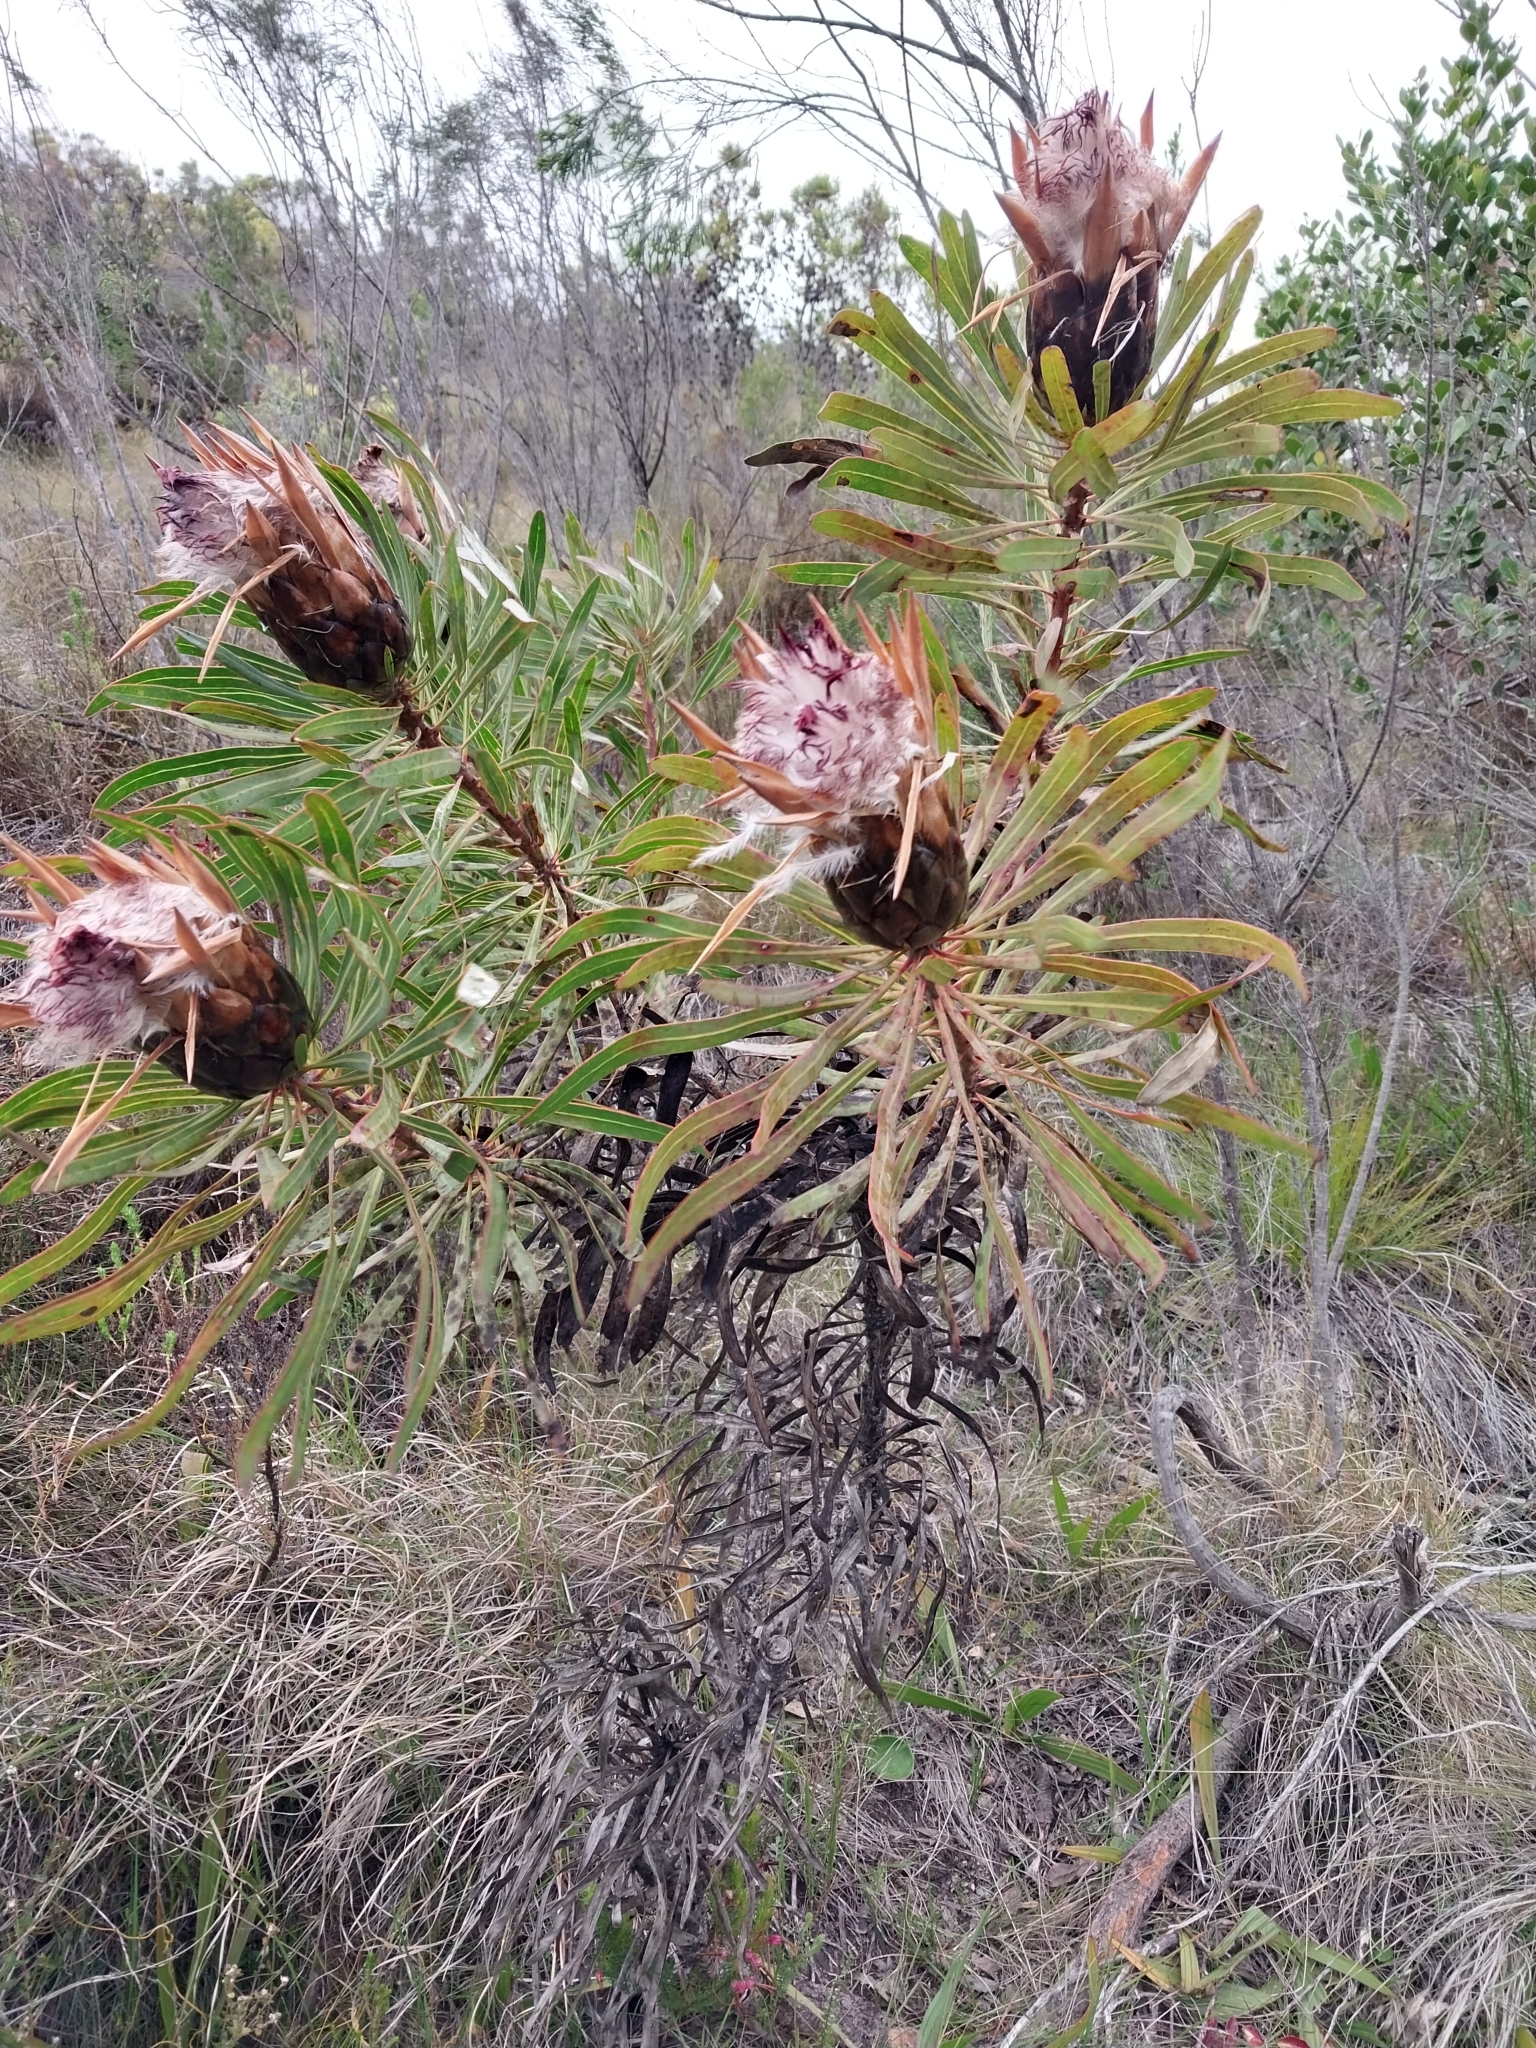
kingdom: Plantae
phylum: Tracheophyta
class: Magnoliopsida
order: Proteales
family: Proteaceae
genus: Protea
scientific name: Protea longifolia
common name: Long-leaf sugarbush
